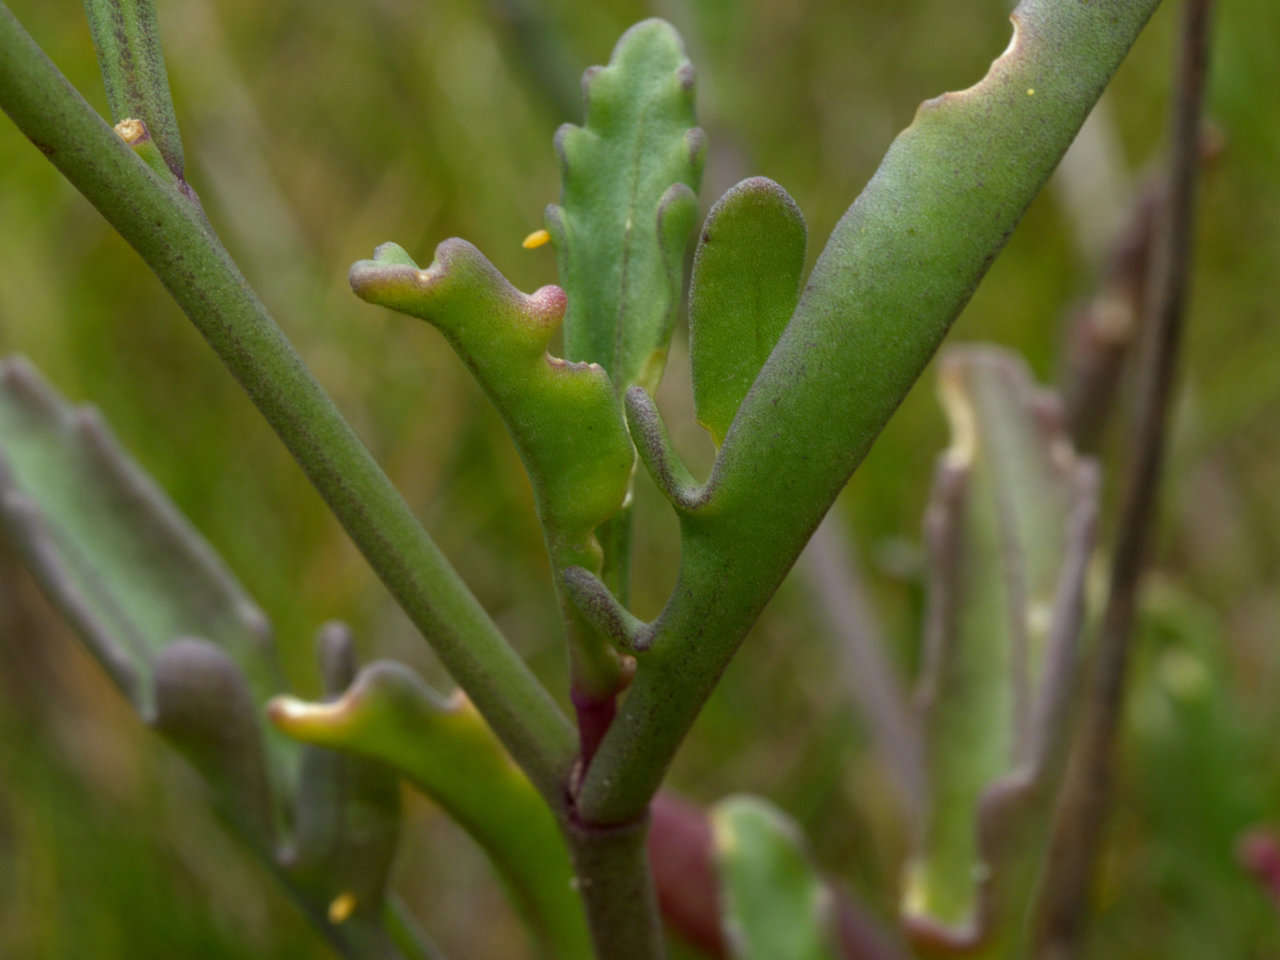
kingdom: Plantae
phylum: Tracheophyta
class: Magnoliopsida
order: Brassicales
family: Brassicaceae
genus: Cakile
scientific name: Cakile maritima
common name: Sea rocket
